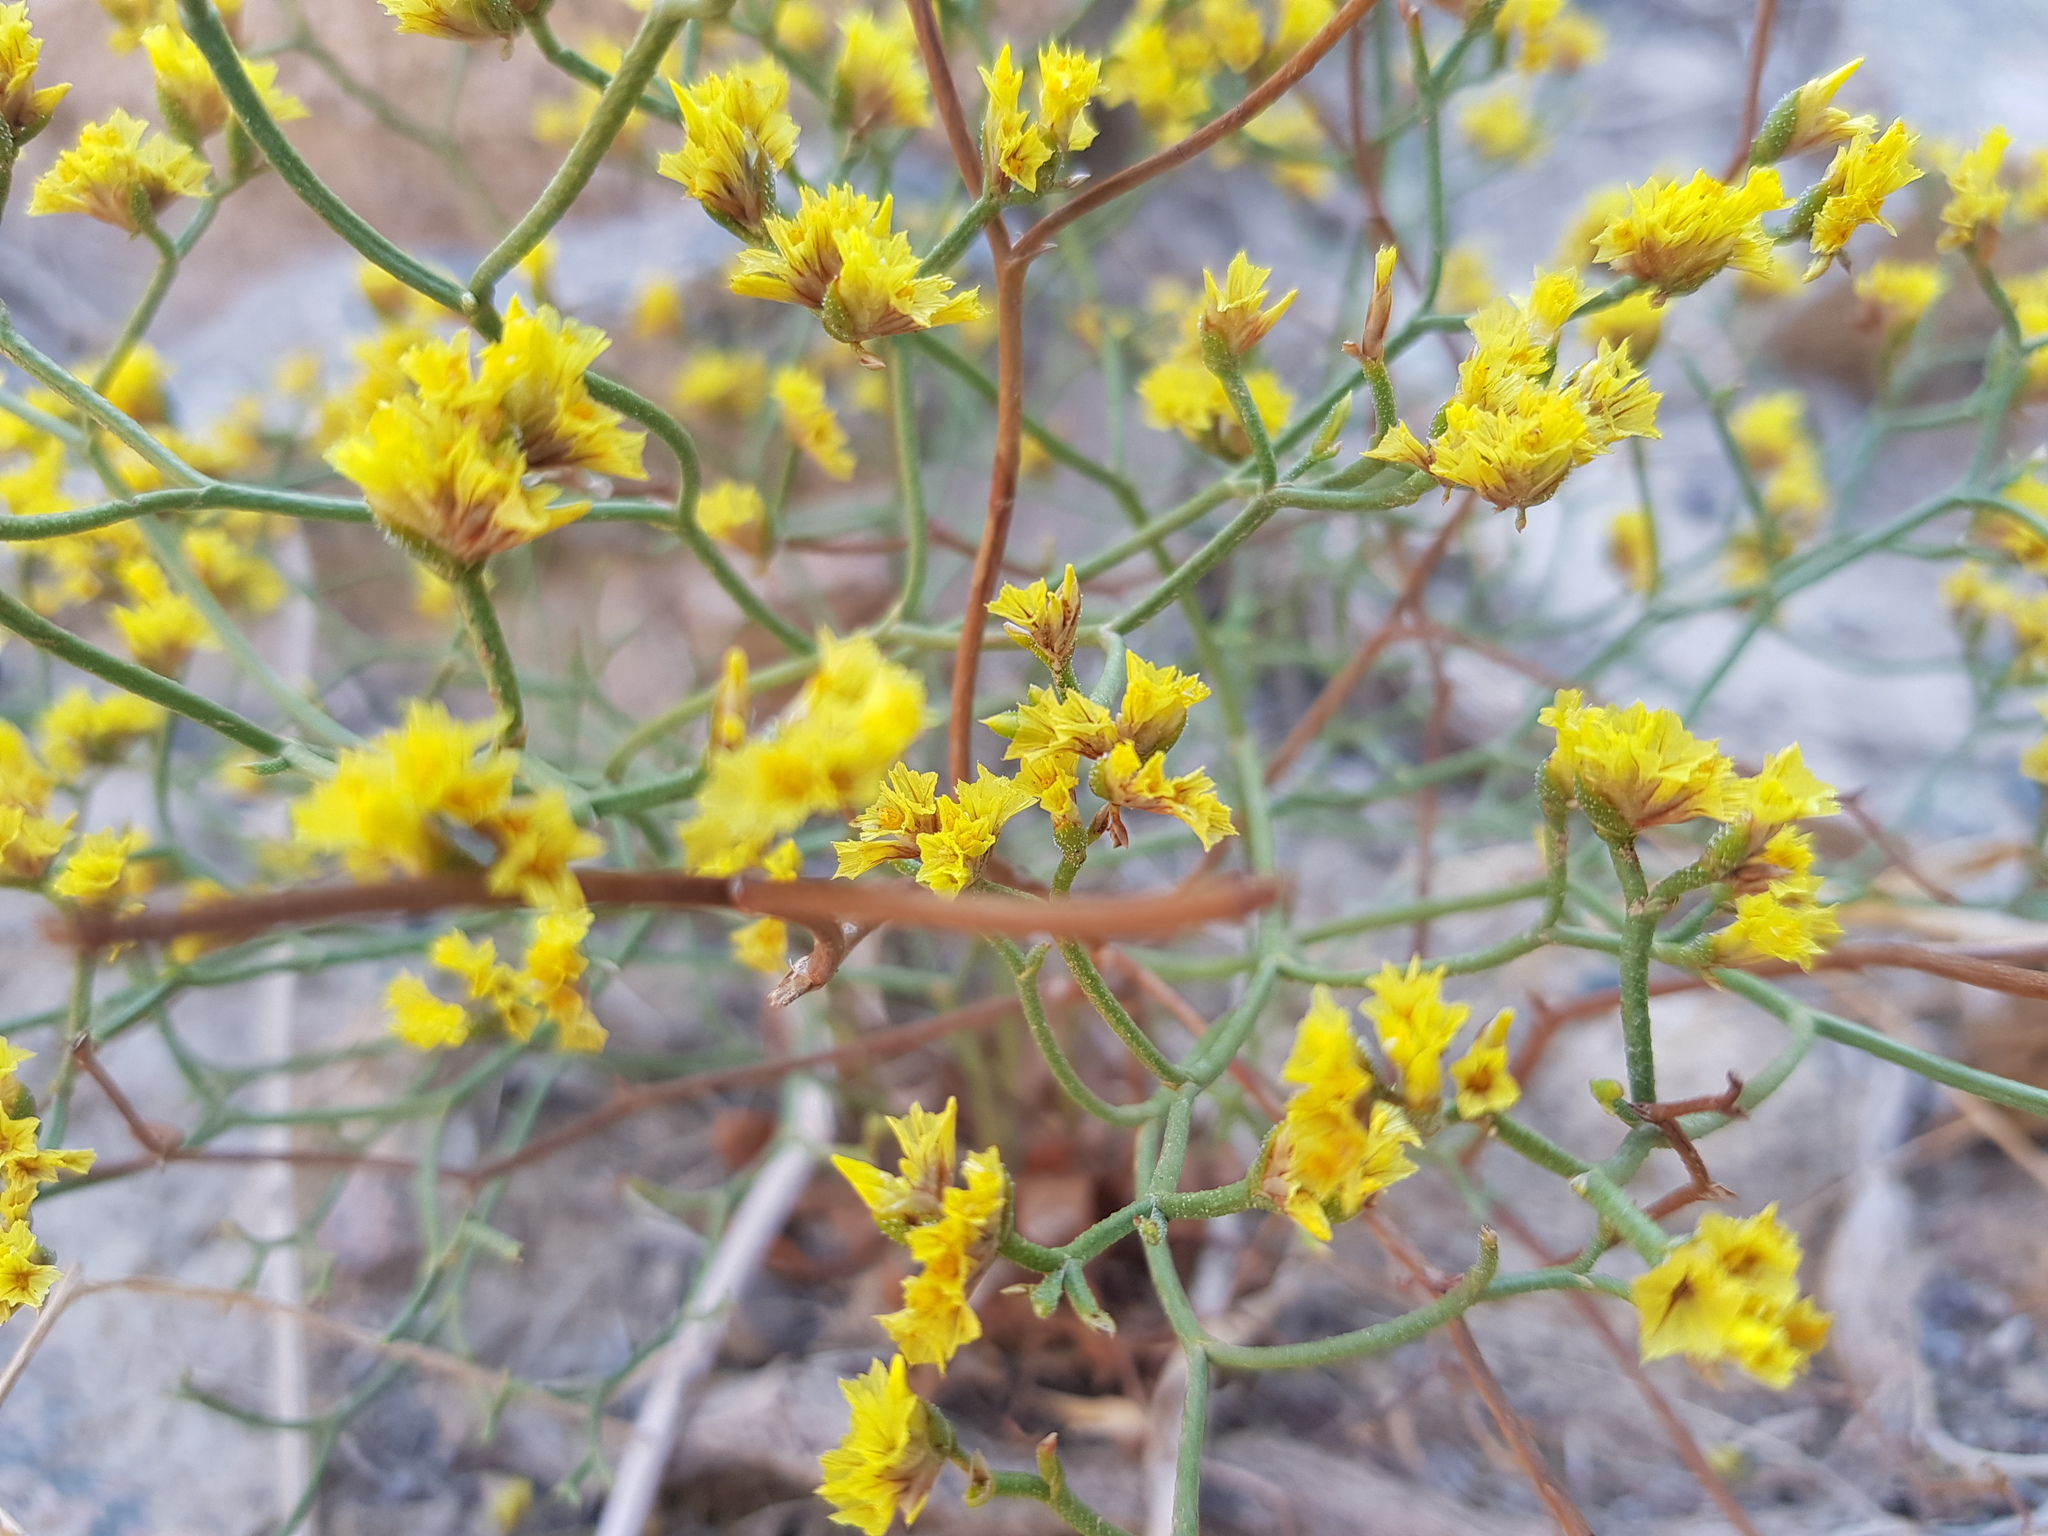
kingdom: Plantae
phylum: Tracheophyta
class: Magnoliopsida
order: Caryophyllales
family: Plumbaginaceae
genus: Limonium
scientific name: Limonium aureum
